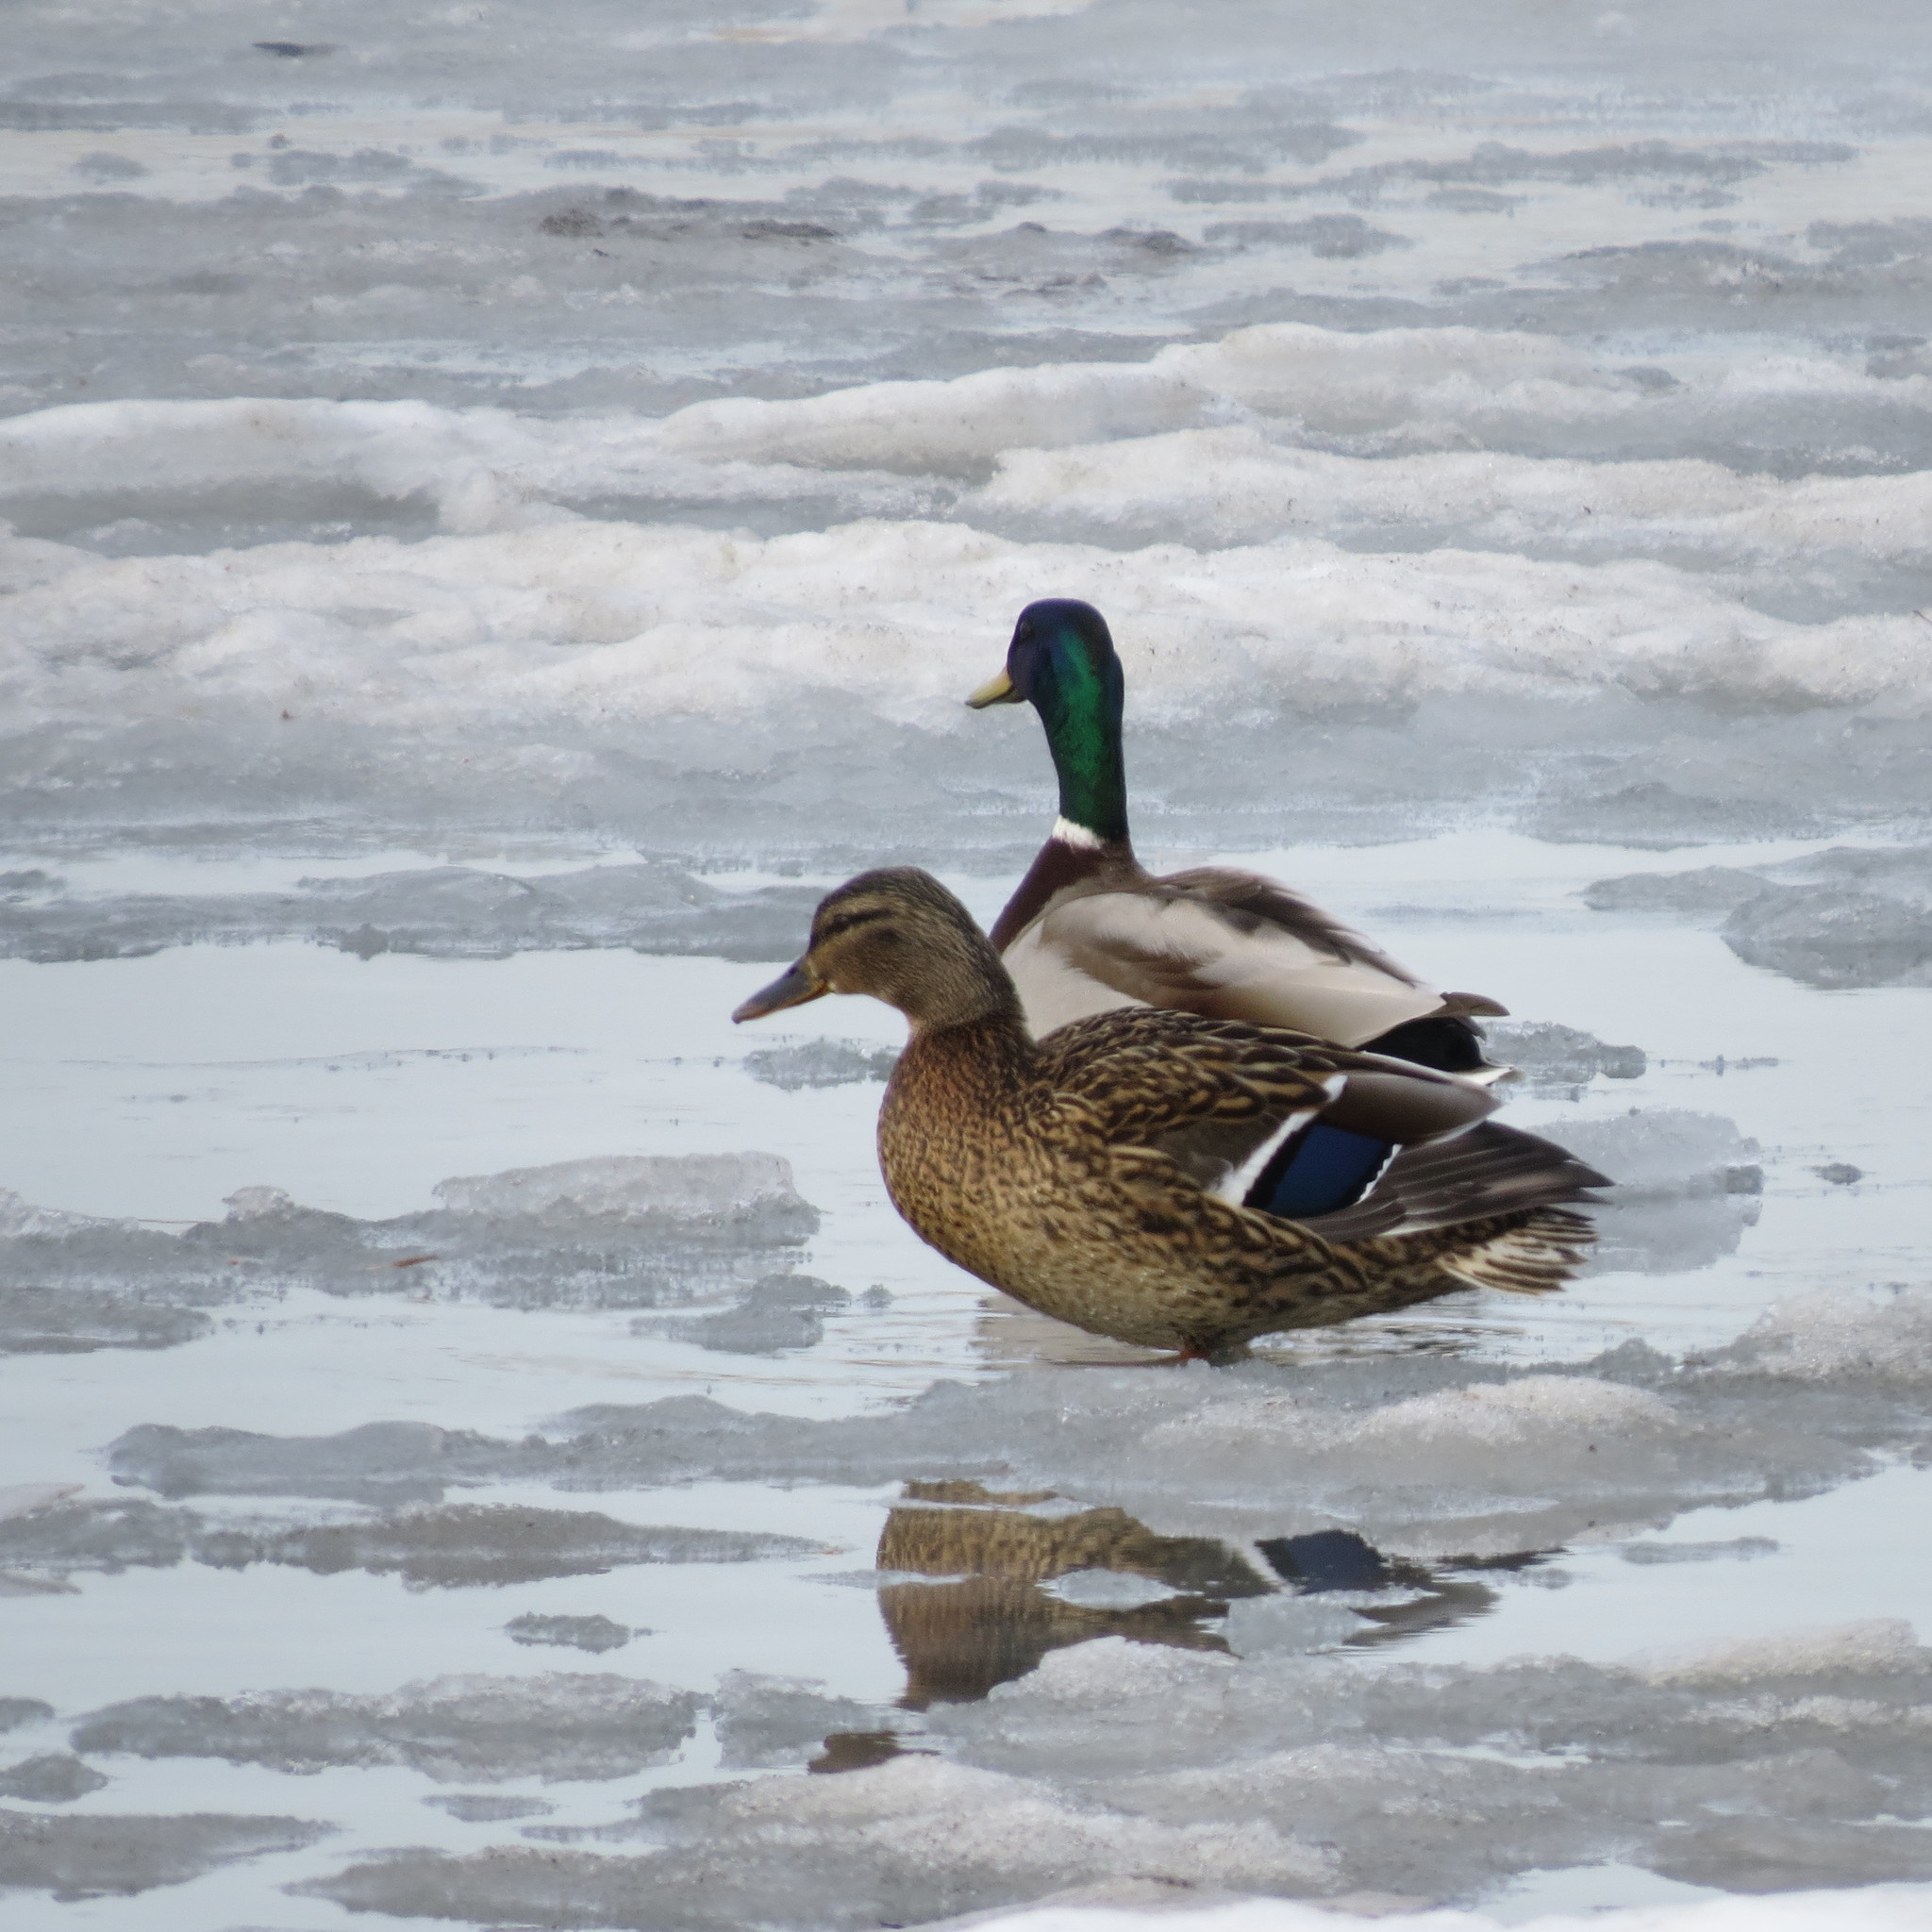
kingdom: Animalia
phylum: Chordata
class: Aves
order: Anseriformes
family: Anatidae
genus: Anas
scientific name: Anas platyrhynchos
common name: Mallard
